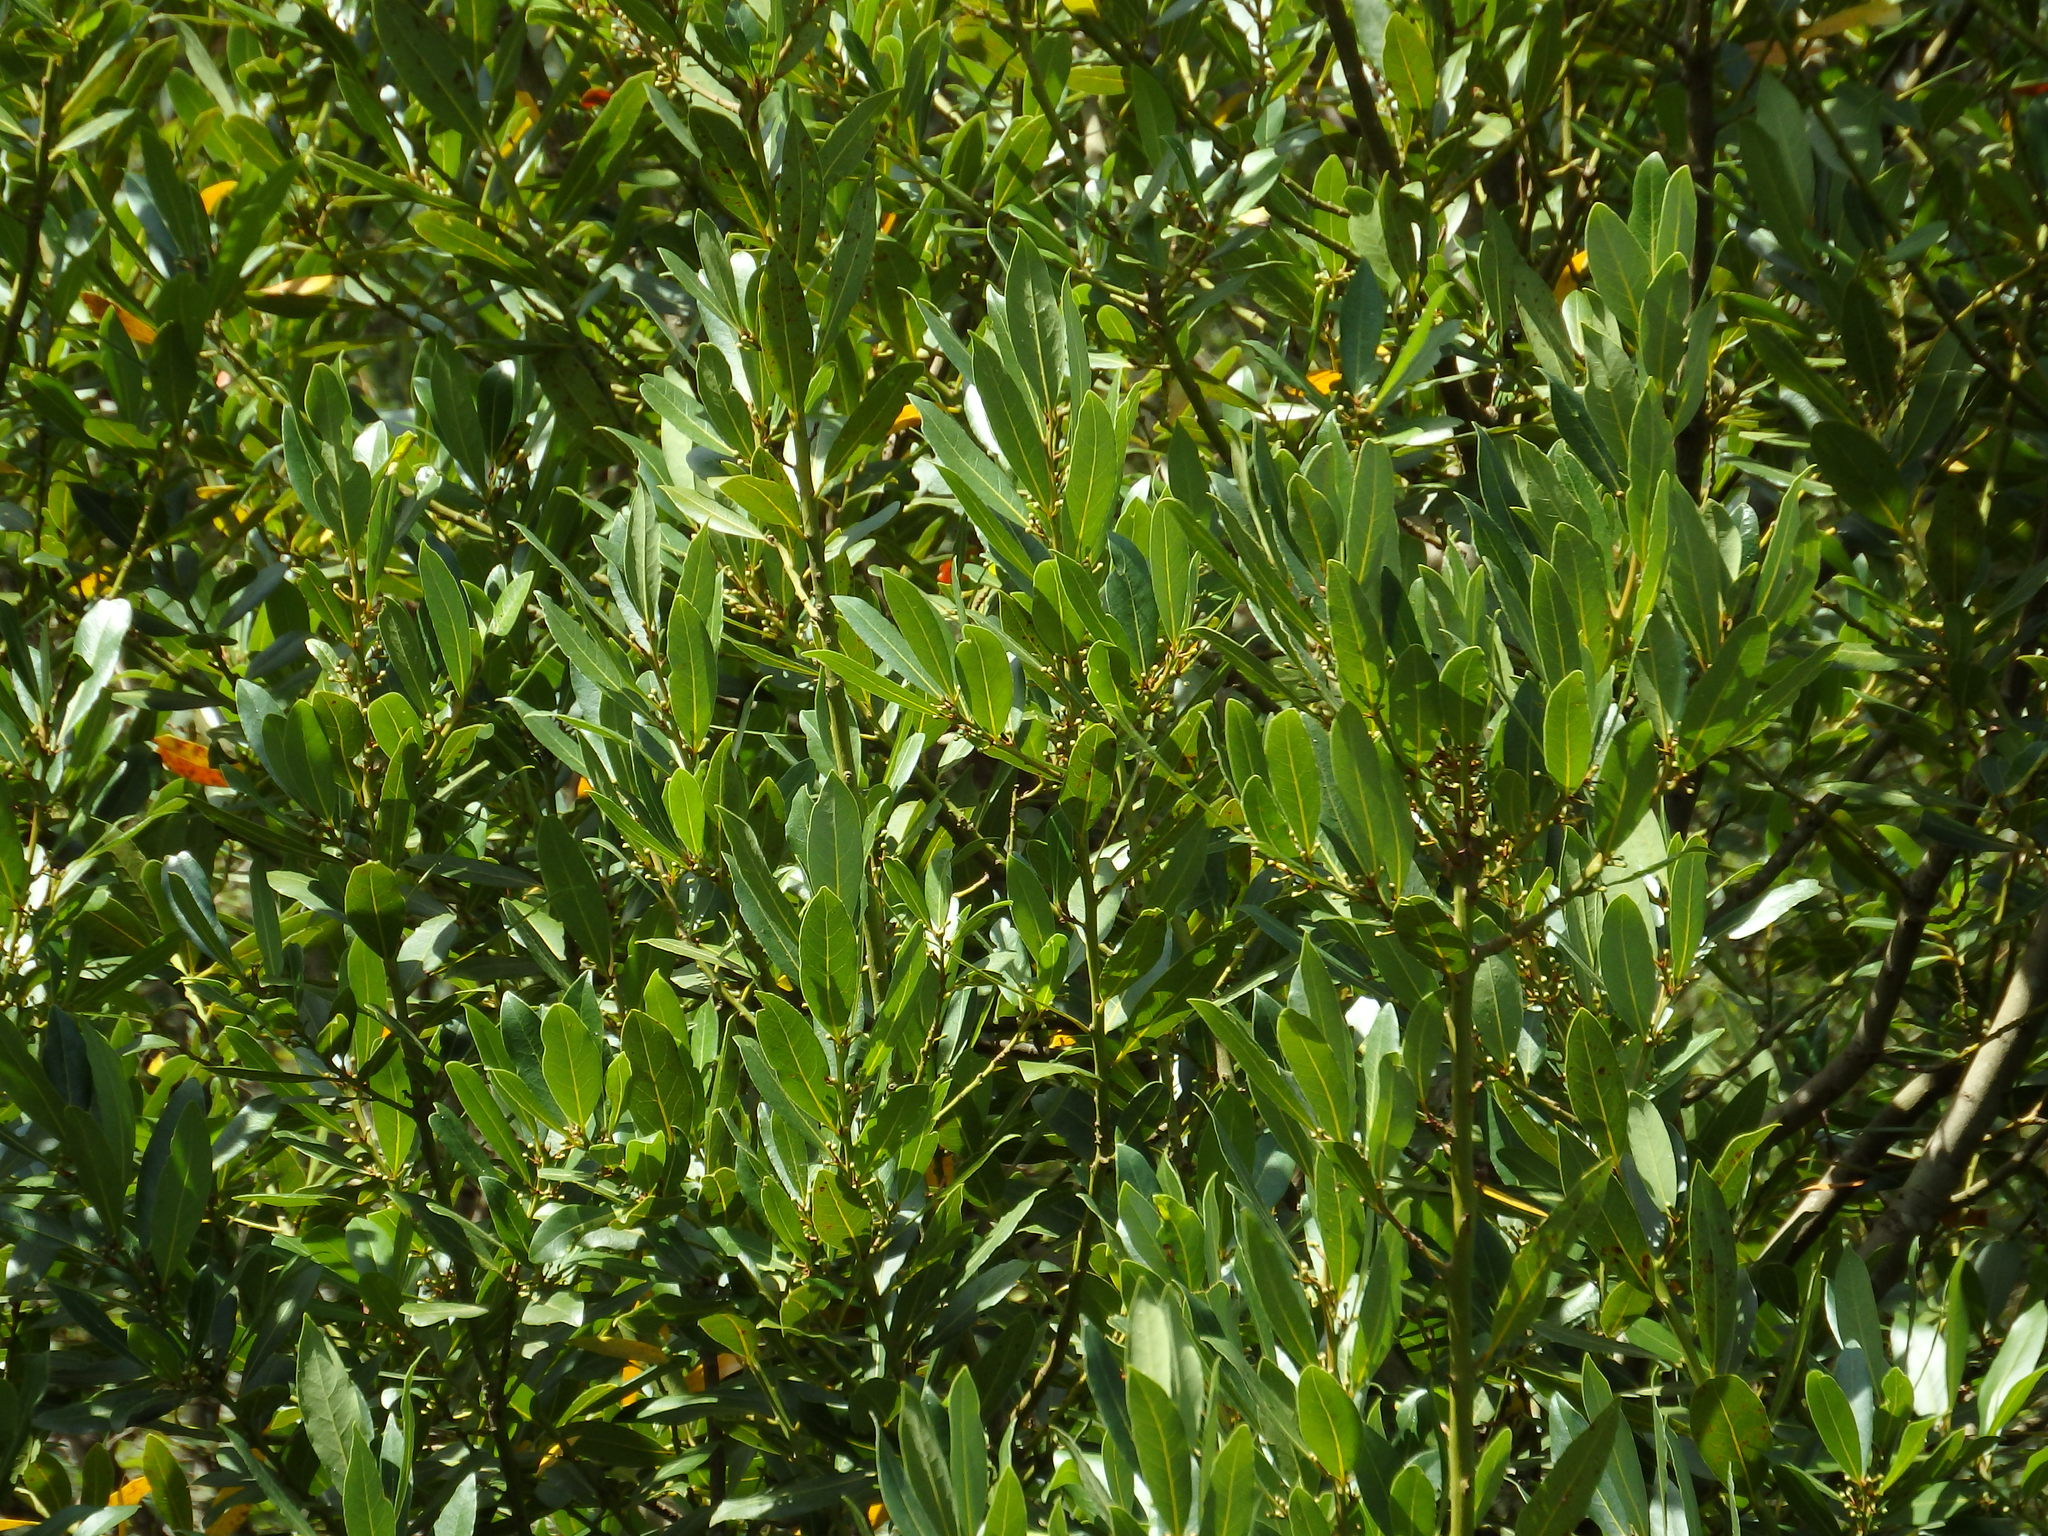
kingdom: Plantae
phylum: Tracheophyta
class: Magnoliopsida
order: Laurales
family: Lauraceae
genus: Laurus
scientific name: Laurus nobilis
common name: Bay
